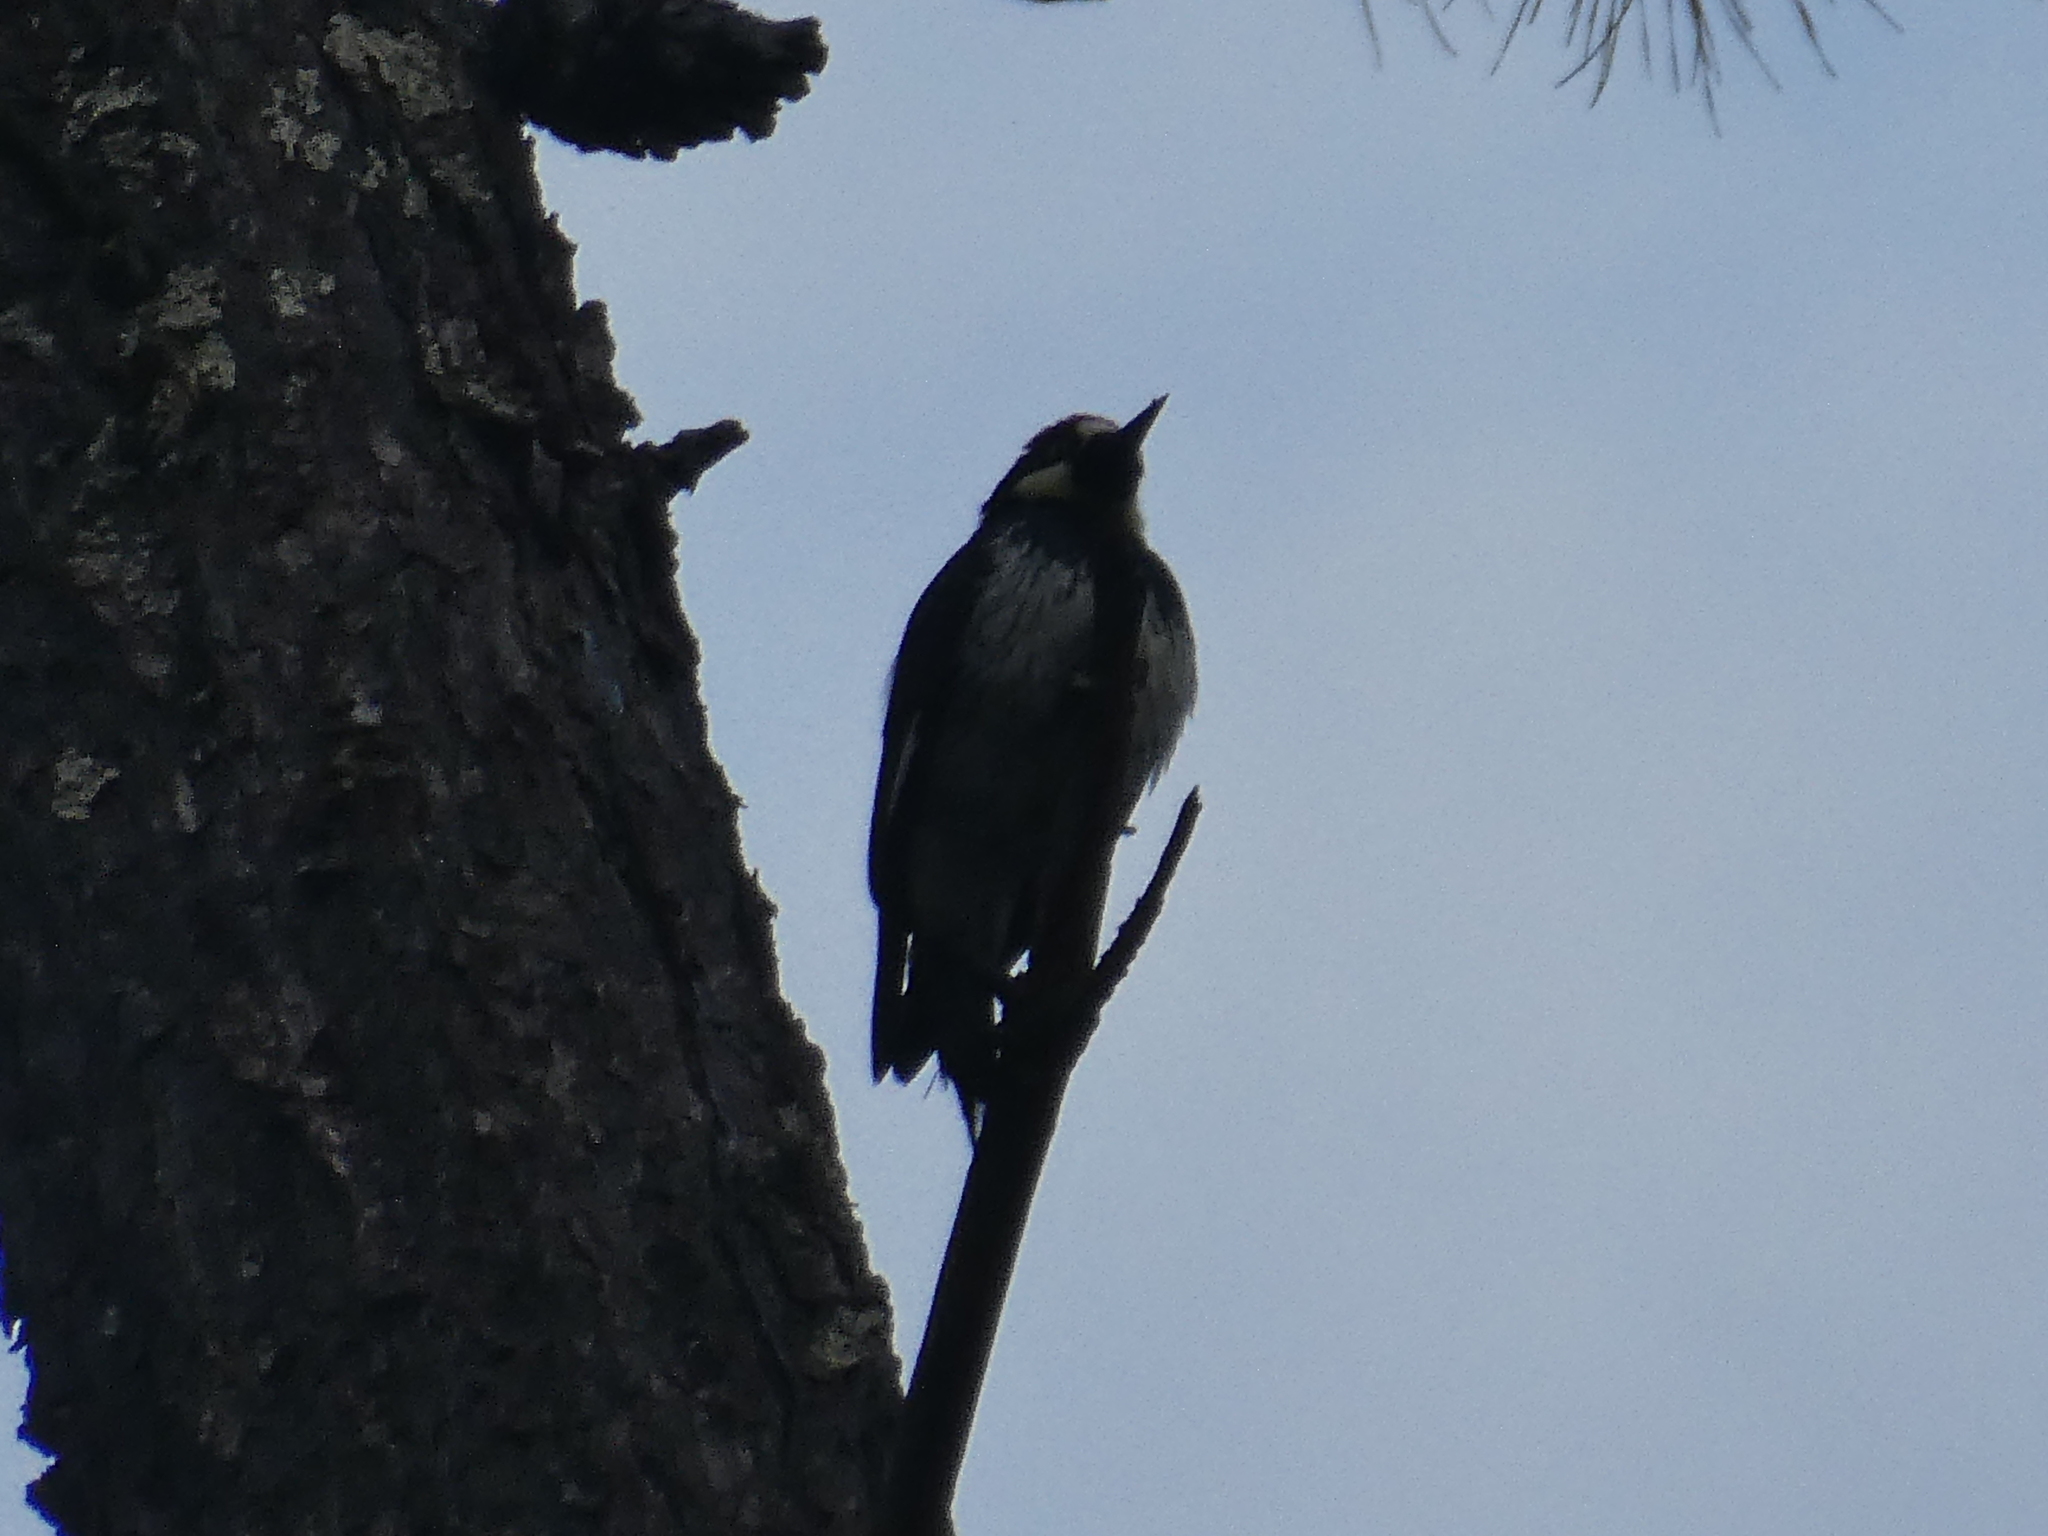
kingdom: Animalia
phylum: Chordata
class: Aves
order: Piciformes
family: Picidae
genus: Melanerpes
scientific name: Melanerpes formicivorus
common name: Acorn woodpecker
